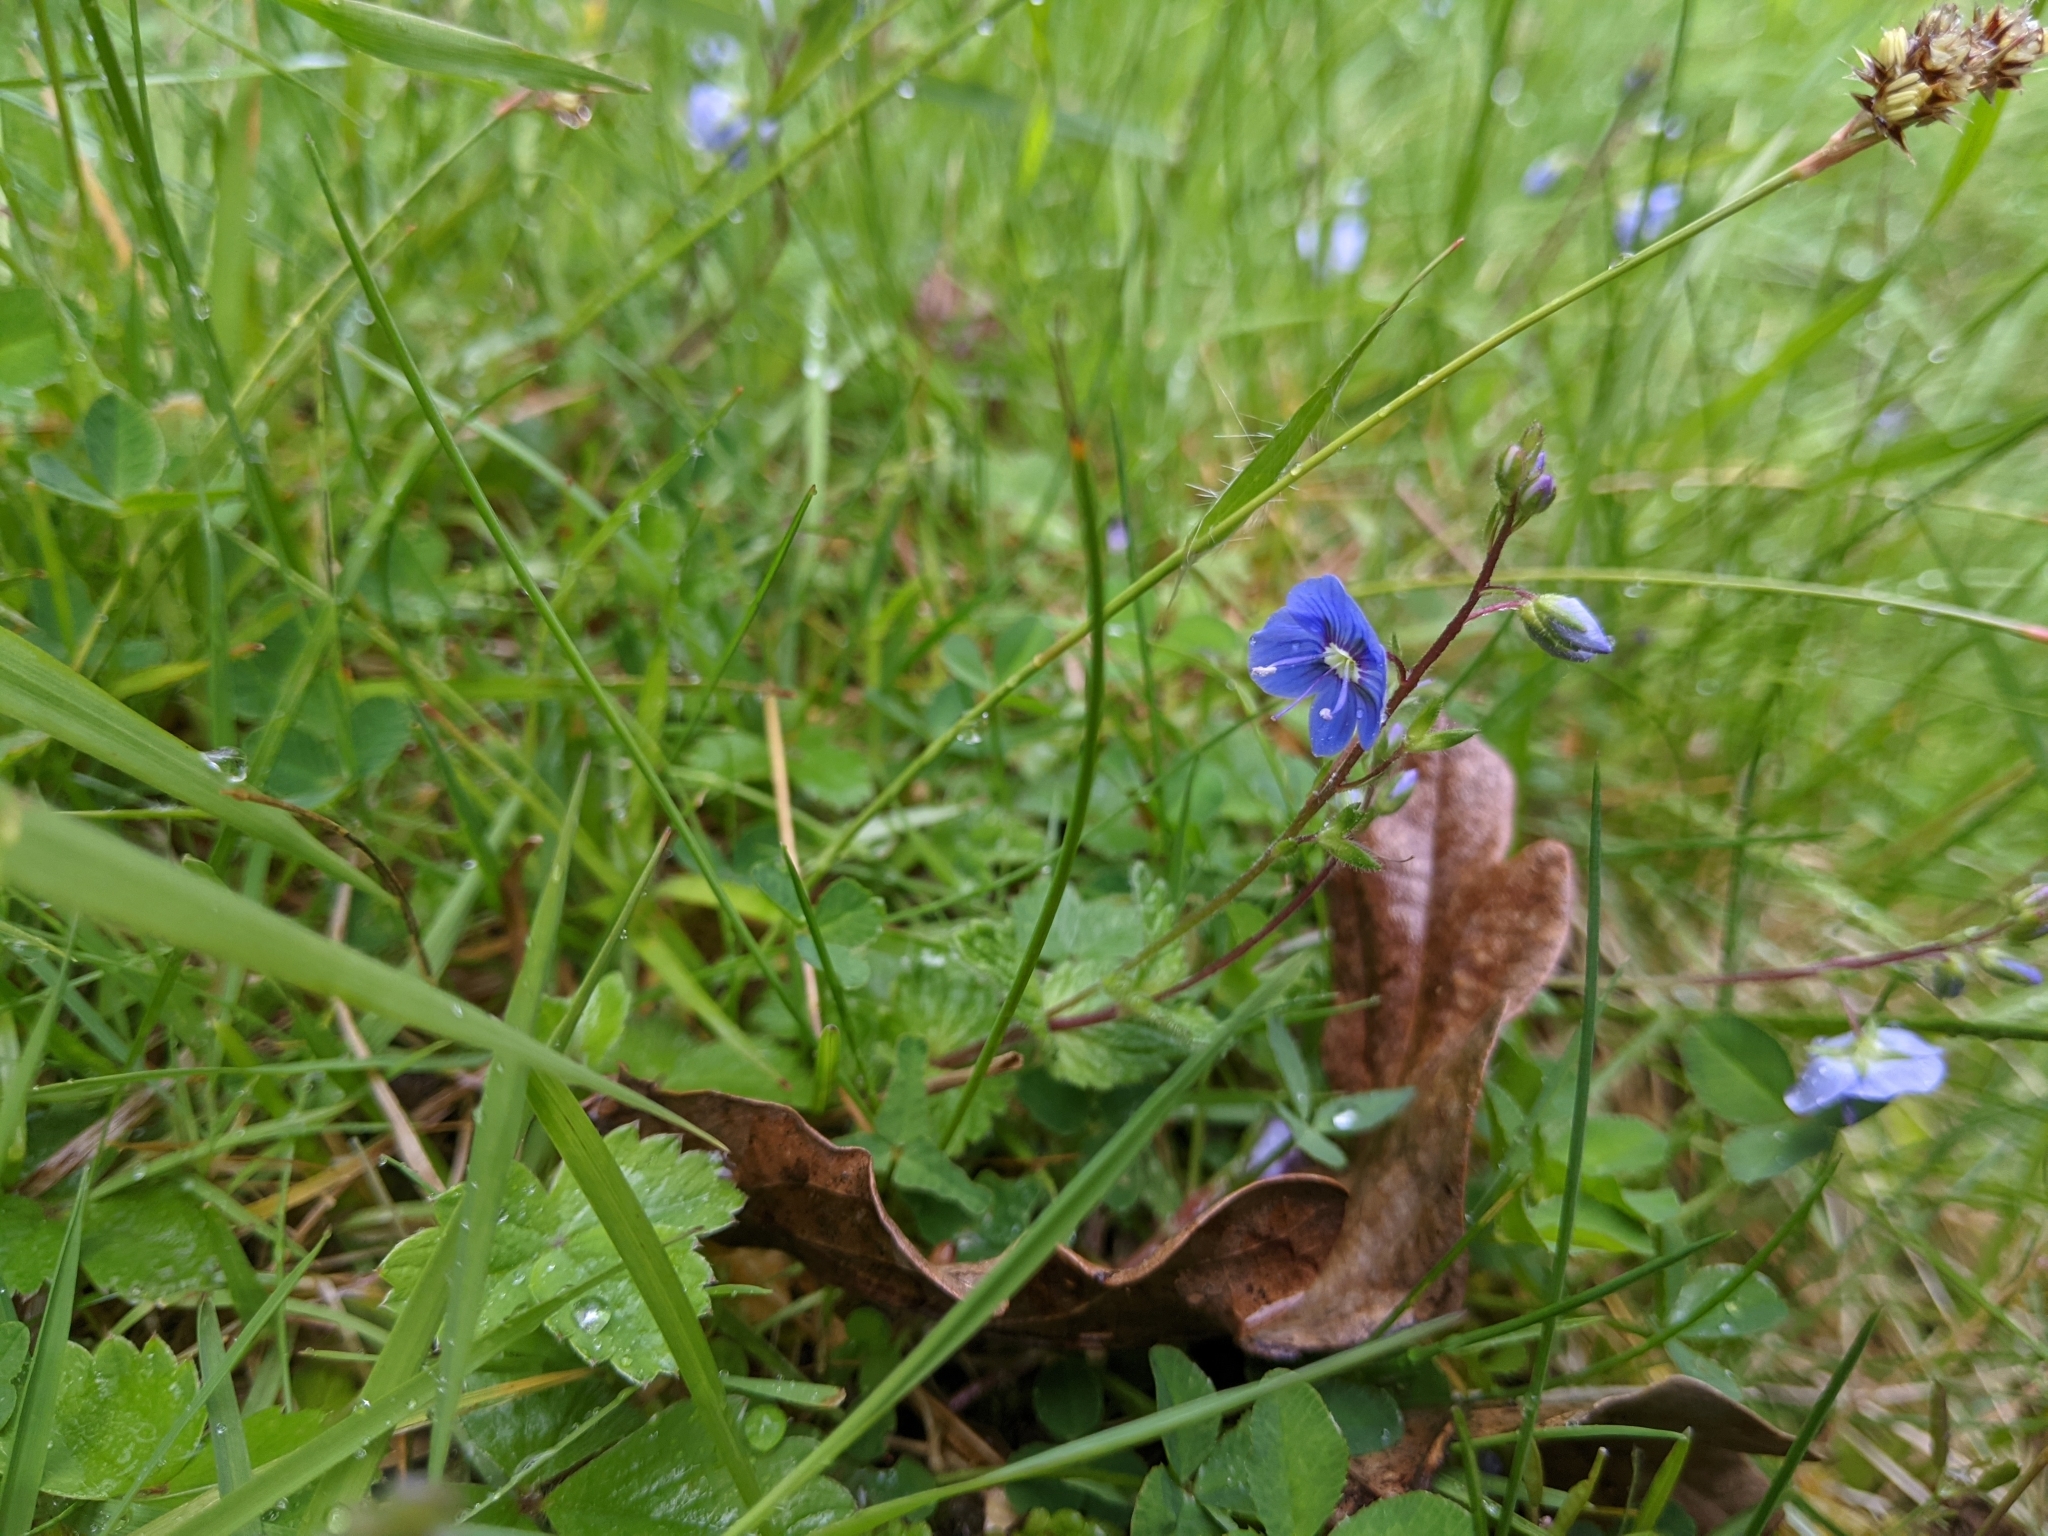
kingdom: Plantae
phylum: Tracheophyta
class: Magnoliopsida
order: Lamiales
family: Plantaginaceae
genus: Veronica
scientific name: Veronica chamaedrys
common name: Germander speedwell
